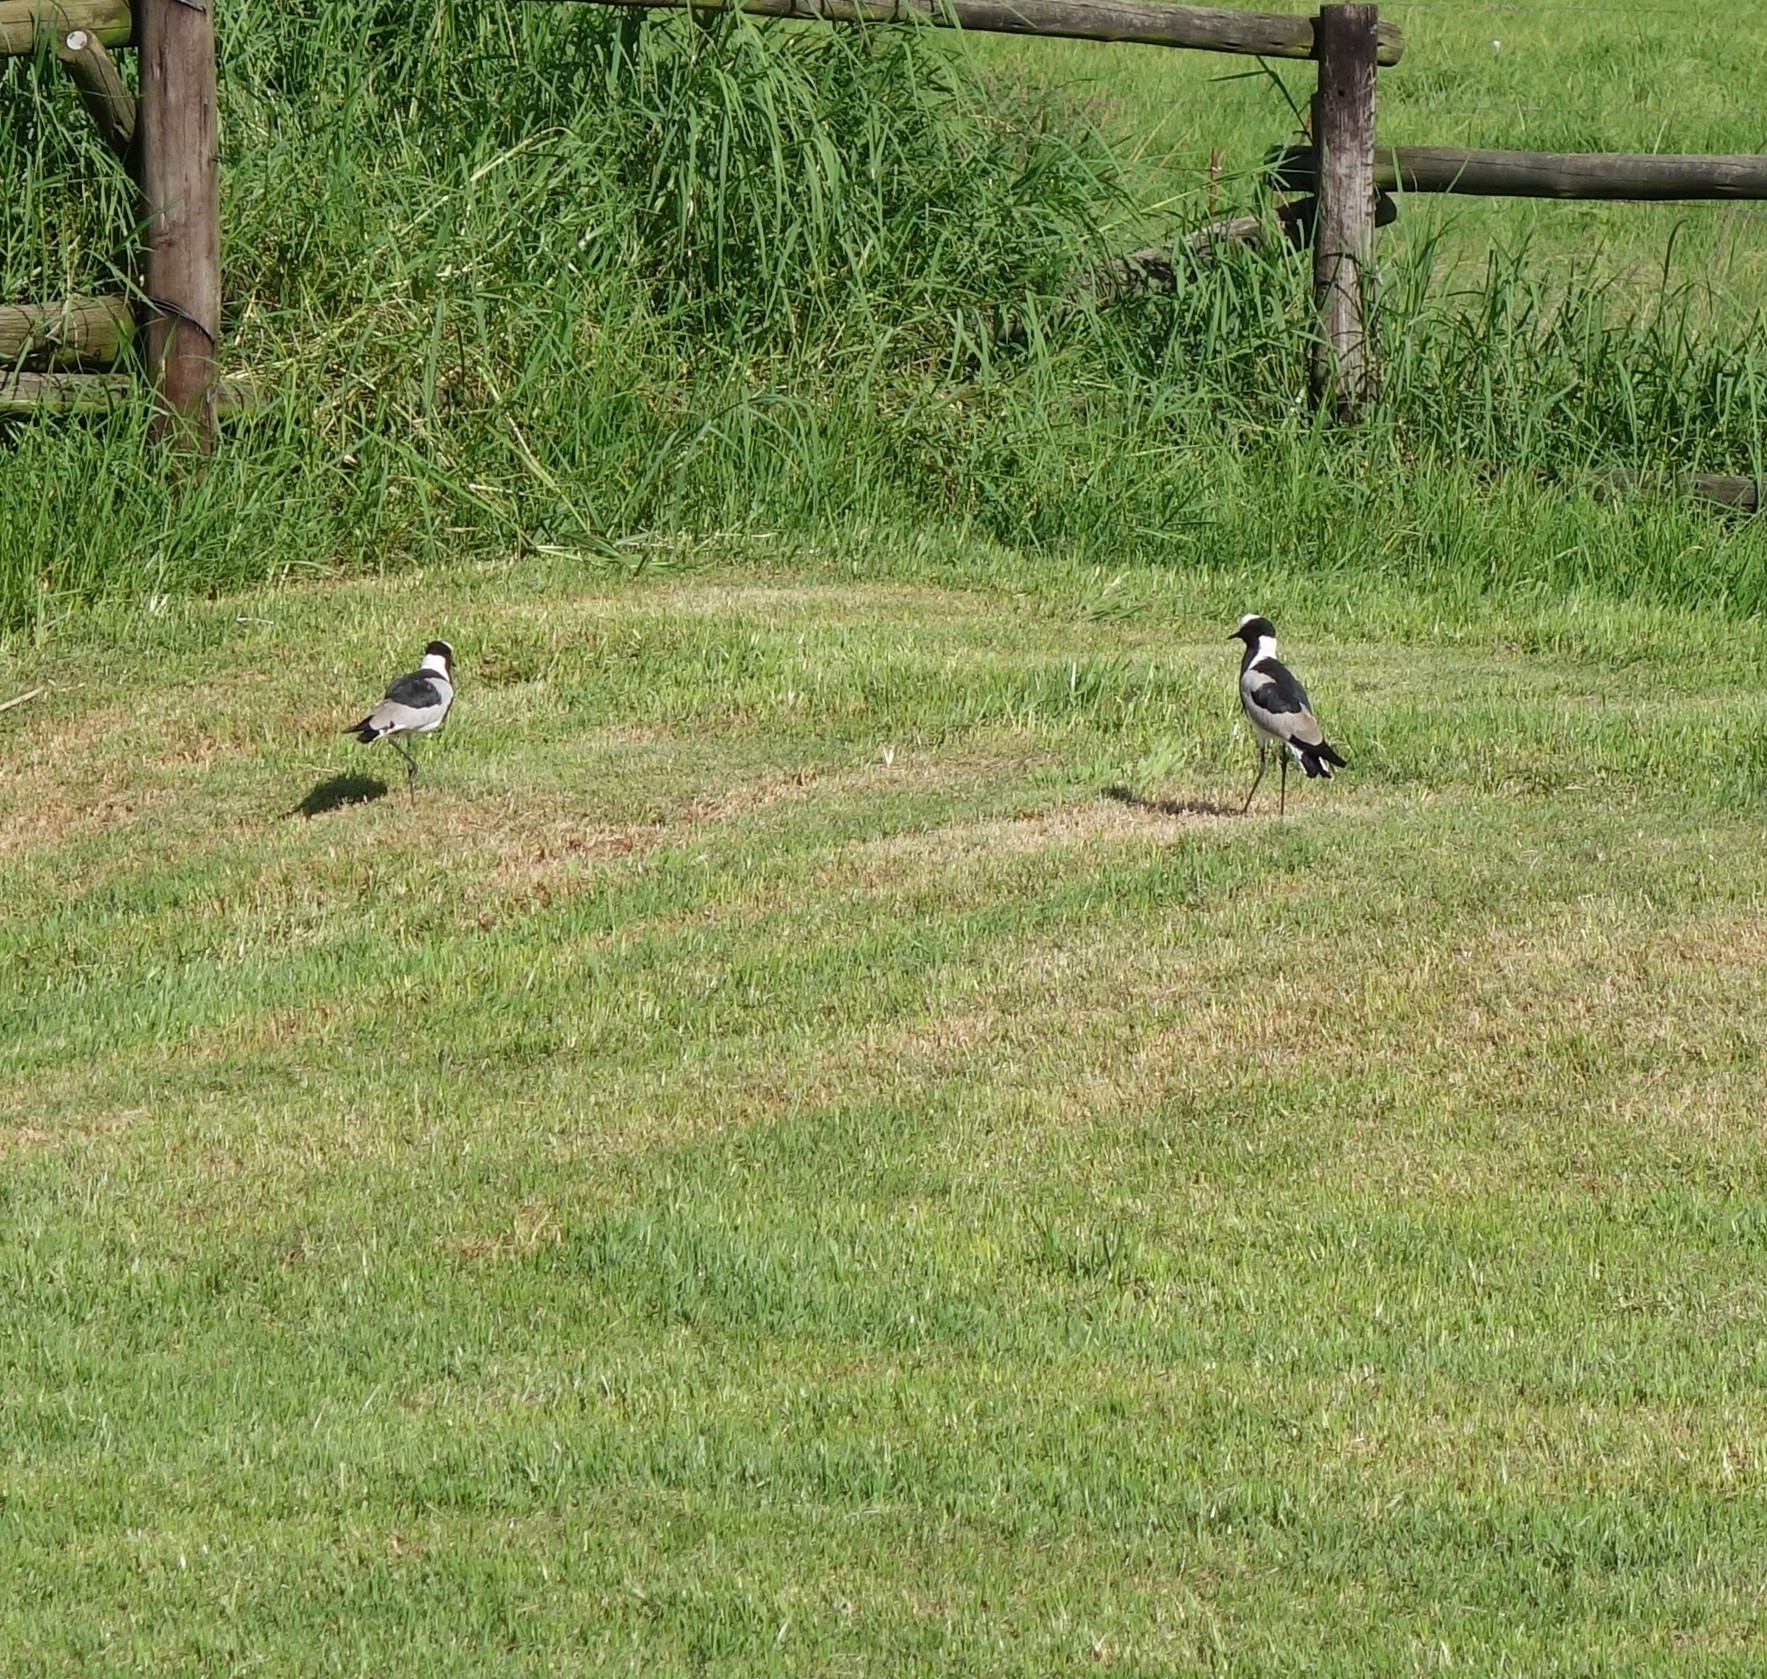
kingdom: Animalia
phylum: Chordata
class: Aves
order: Charadriiformes
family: Charadriidae
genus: Vanellus
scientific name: Vanellus armatus
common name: Blacksmith lapwing
